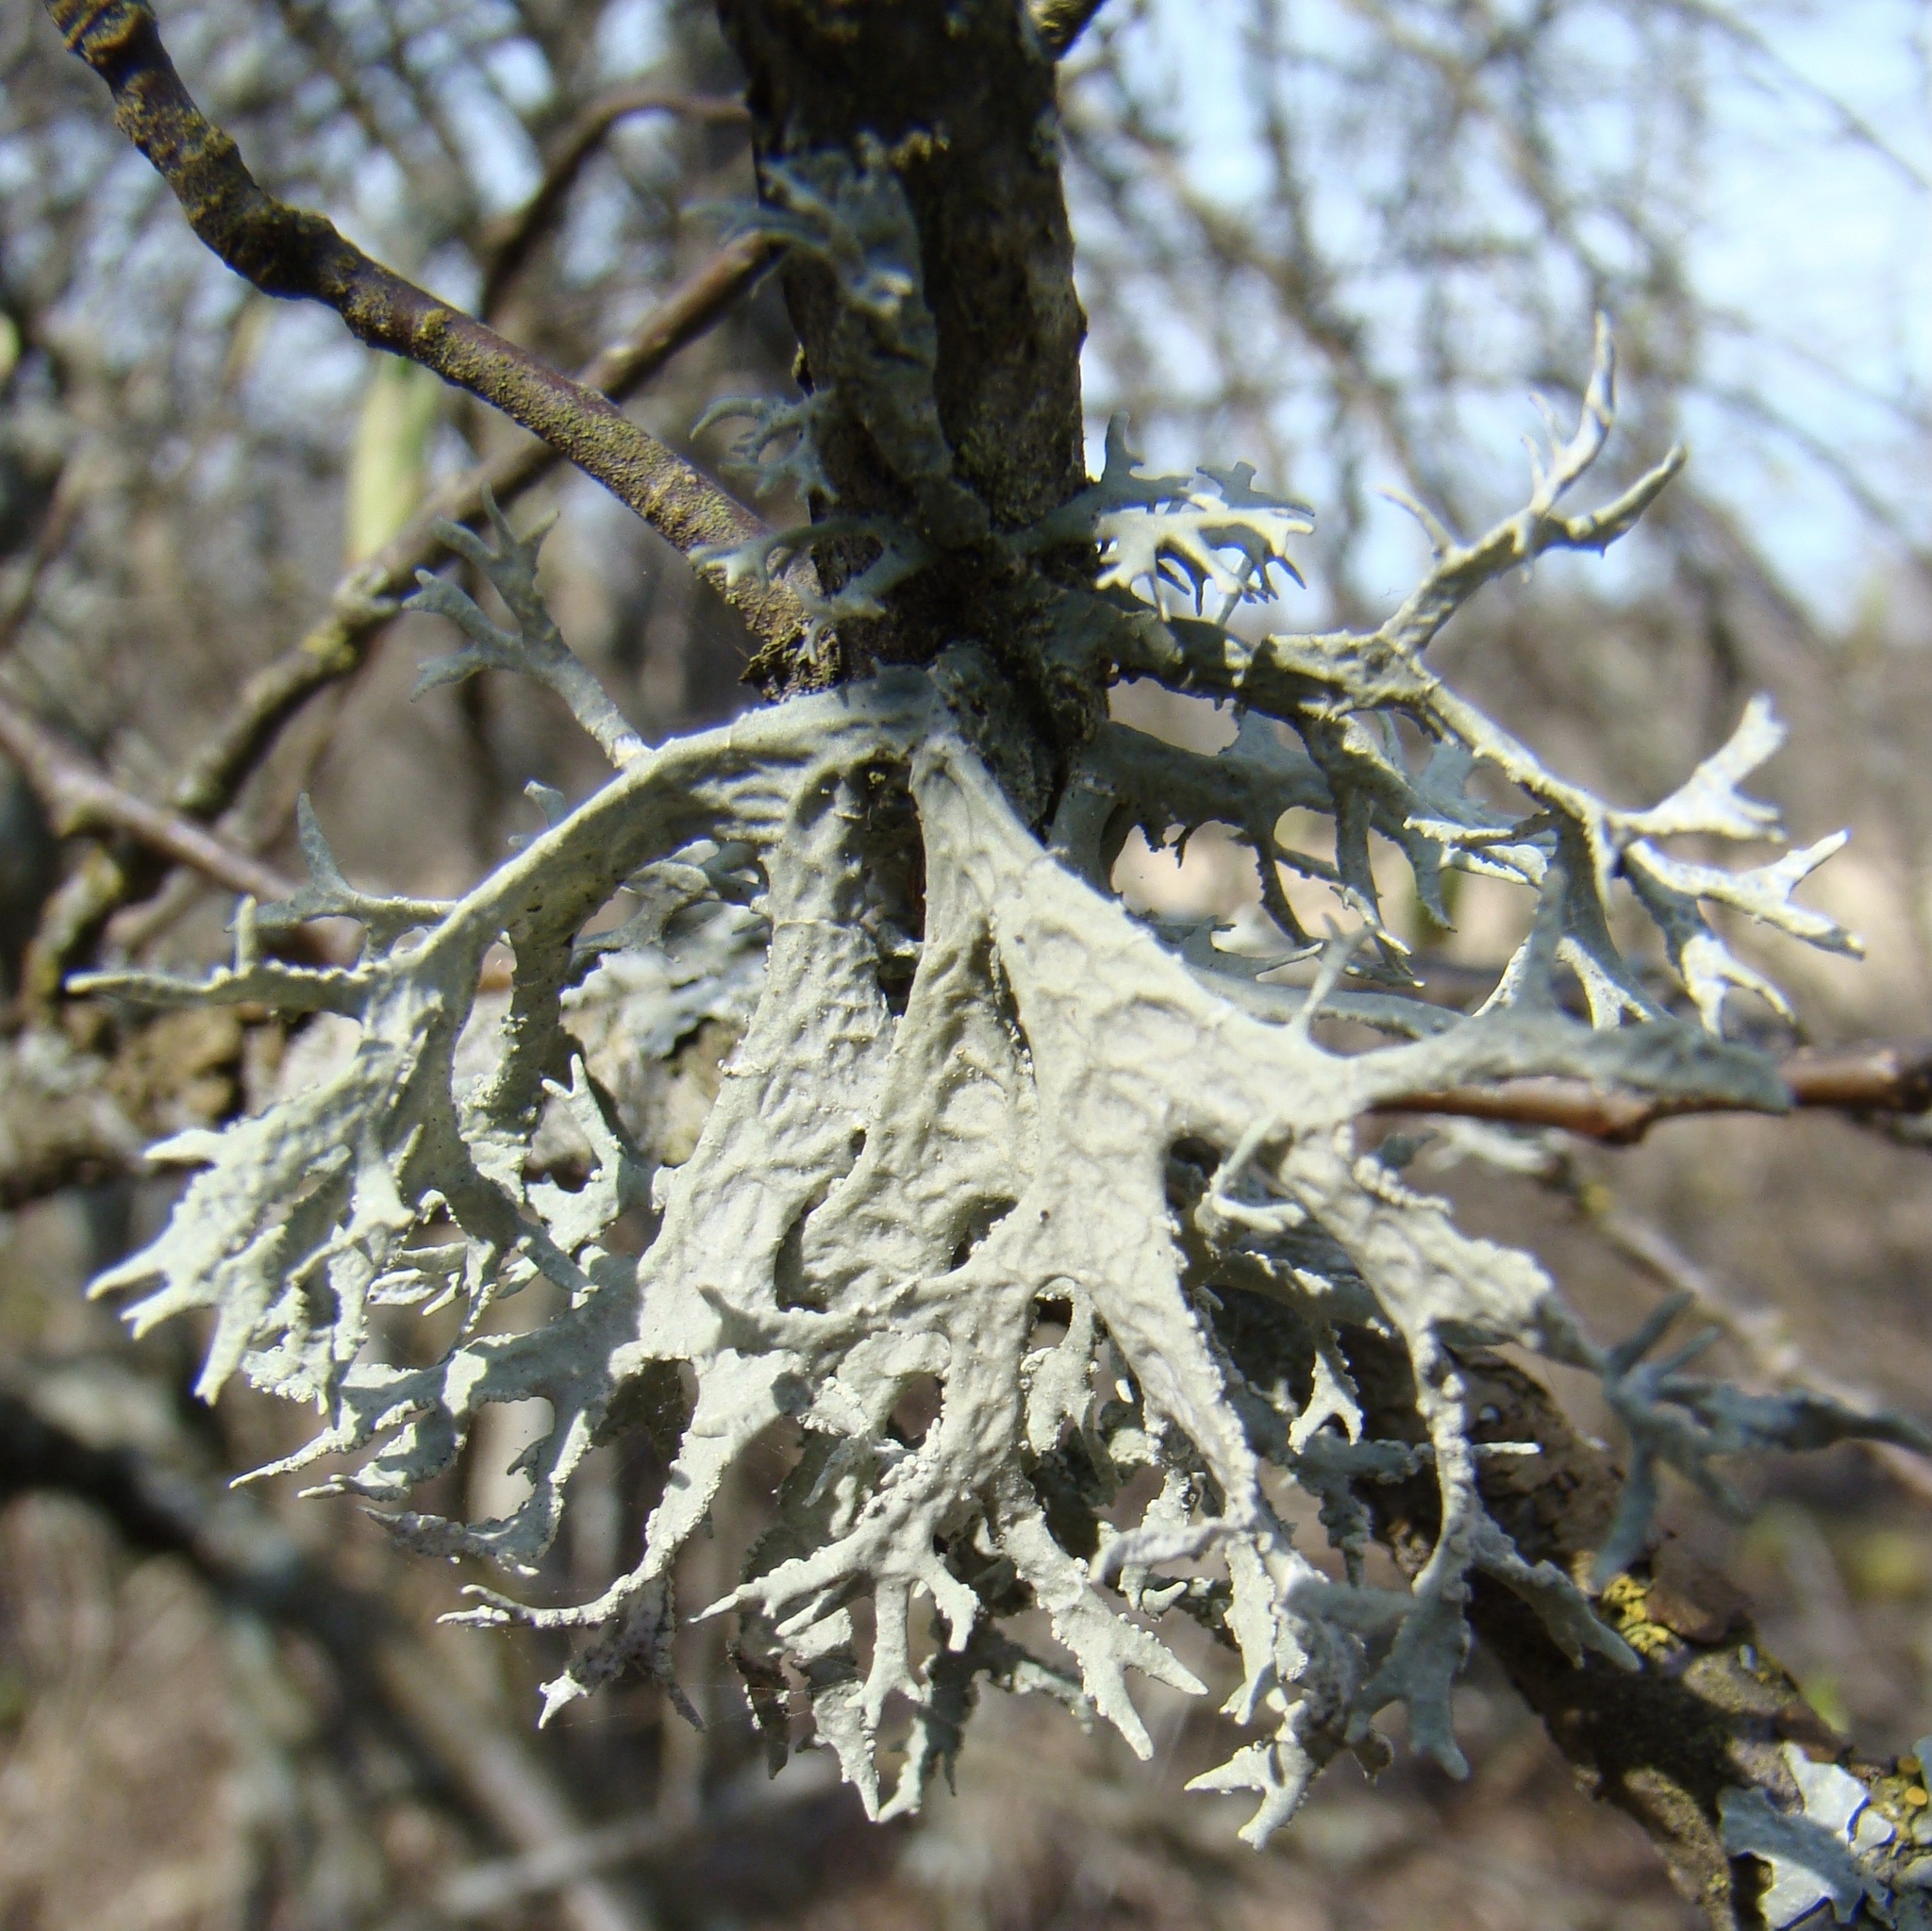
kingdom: Fungi
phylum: Ascomycota
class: Lecanoromycetes
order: Lecanorales
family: Parmeliaceae
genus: Evernia
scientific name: Evernia prunastri
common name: Oak moss
